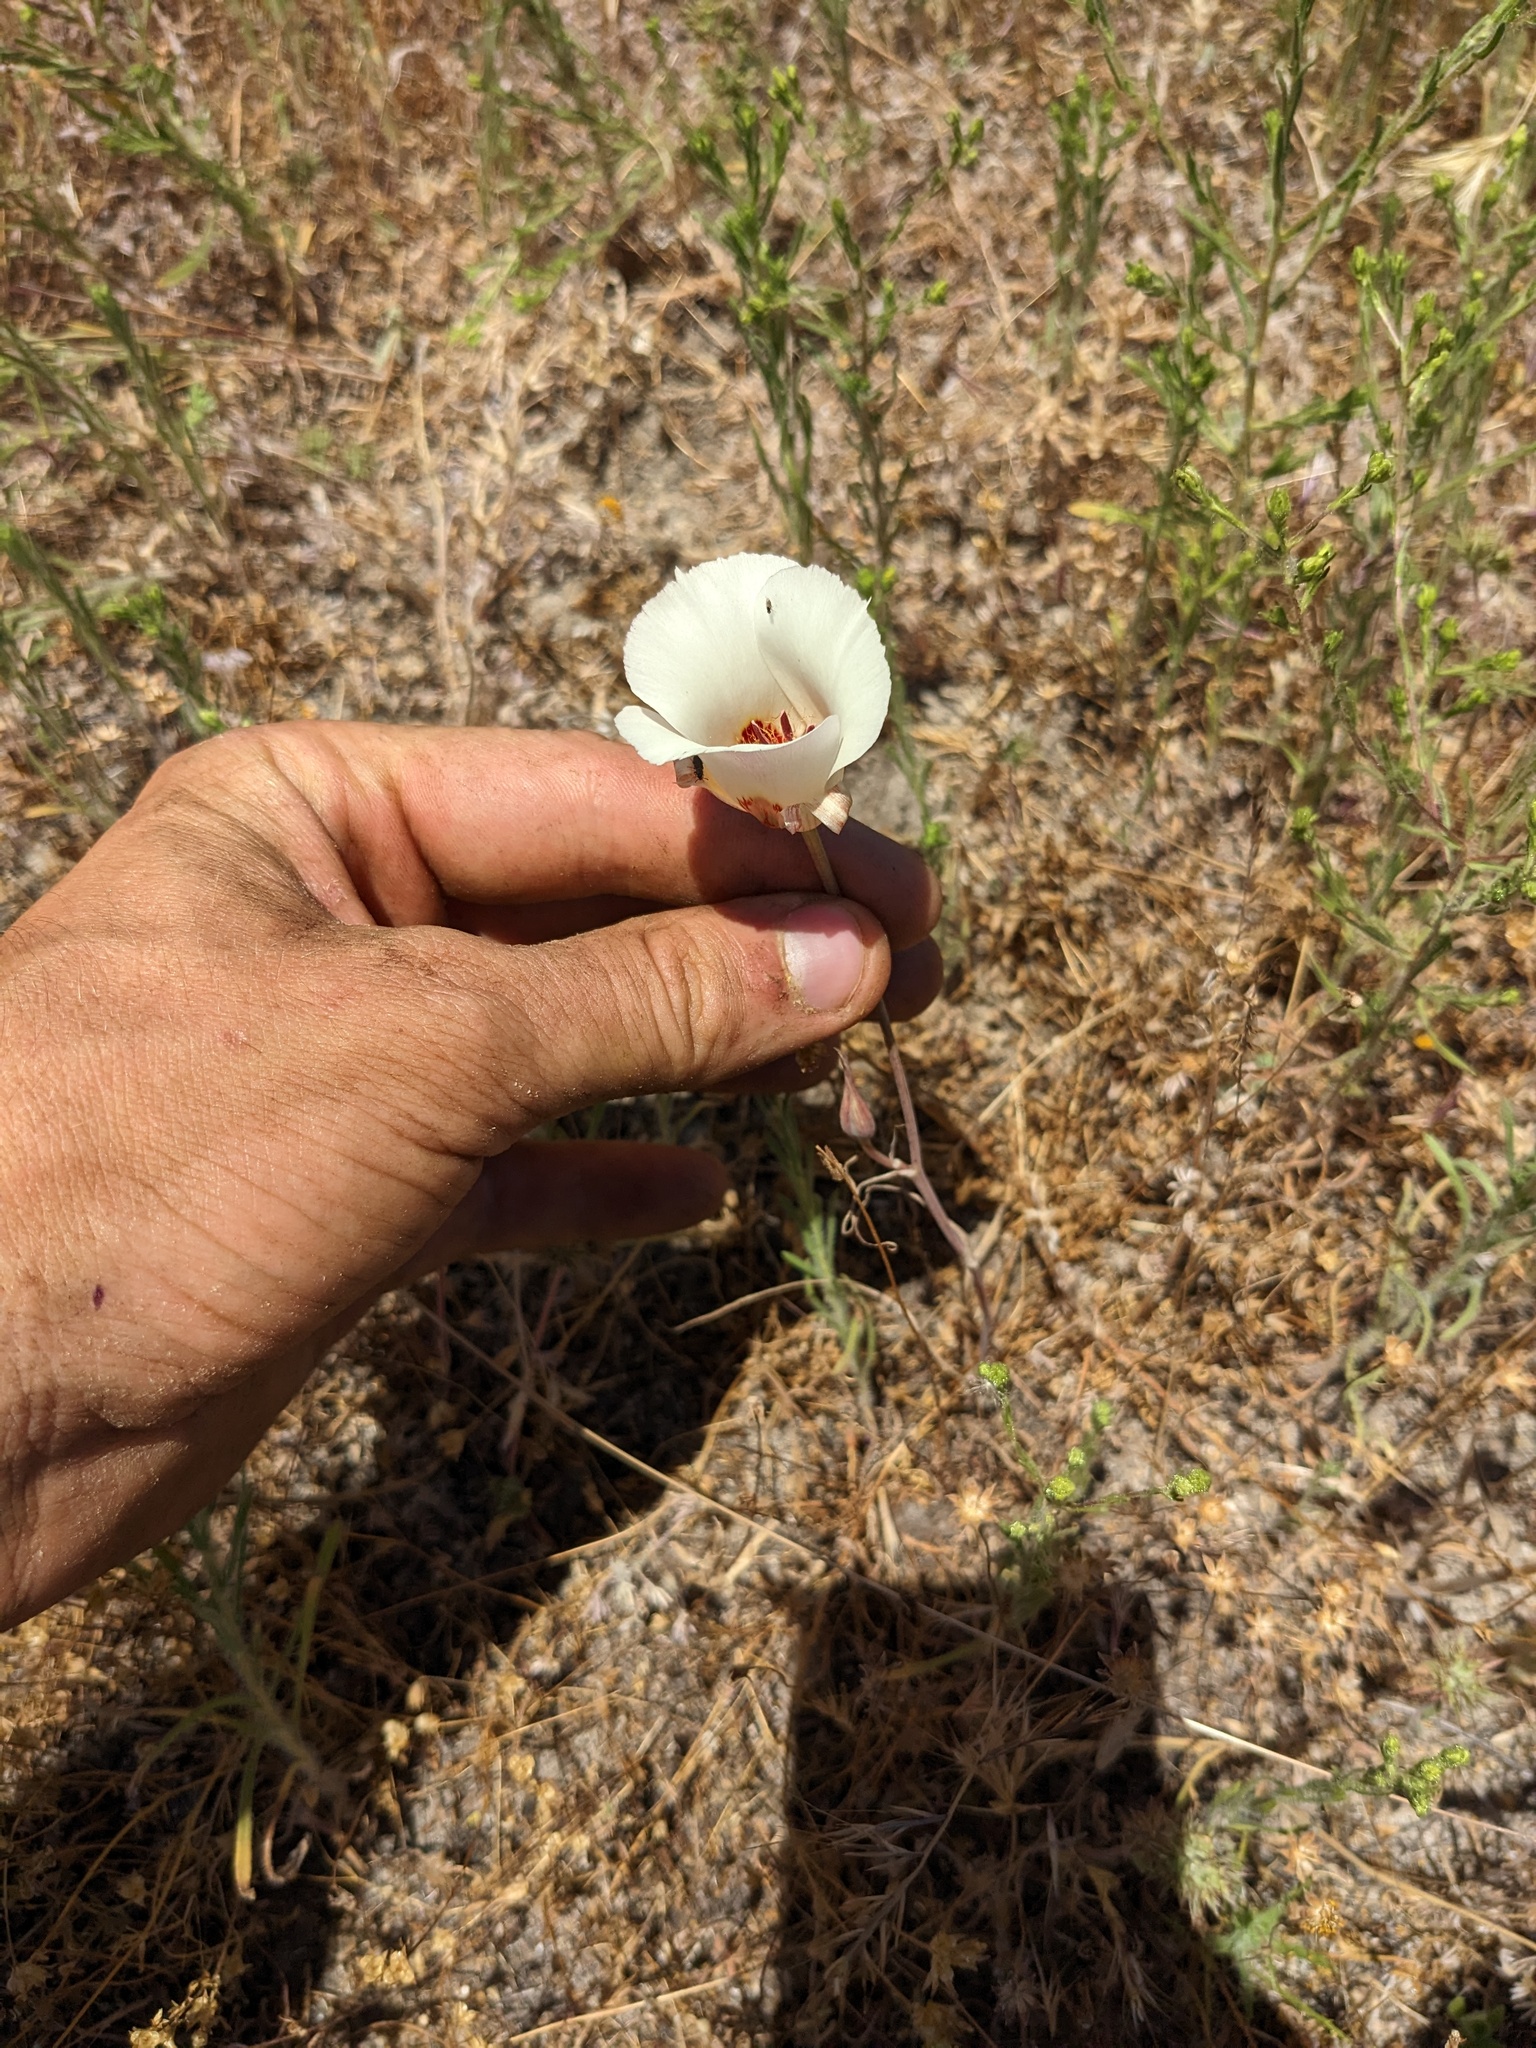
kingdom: Plantae
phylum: Tracheophyta
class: Liliopsida
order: Liliales
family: Liliaceae
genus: Calochortus
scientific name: Calochortus simulans
